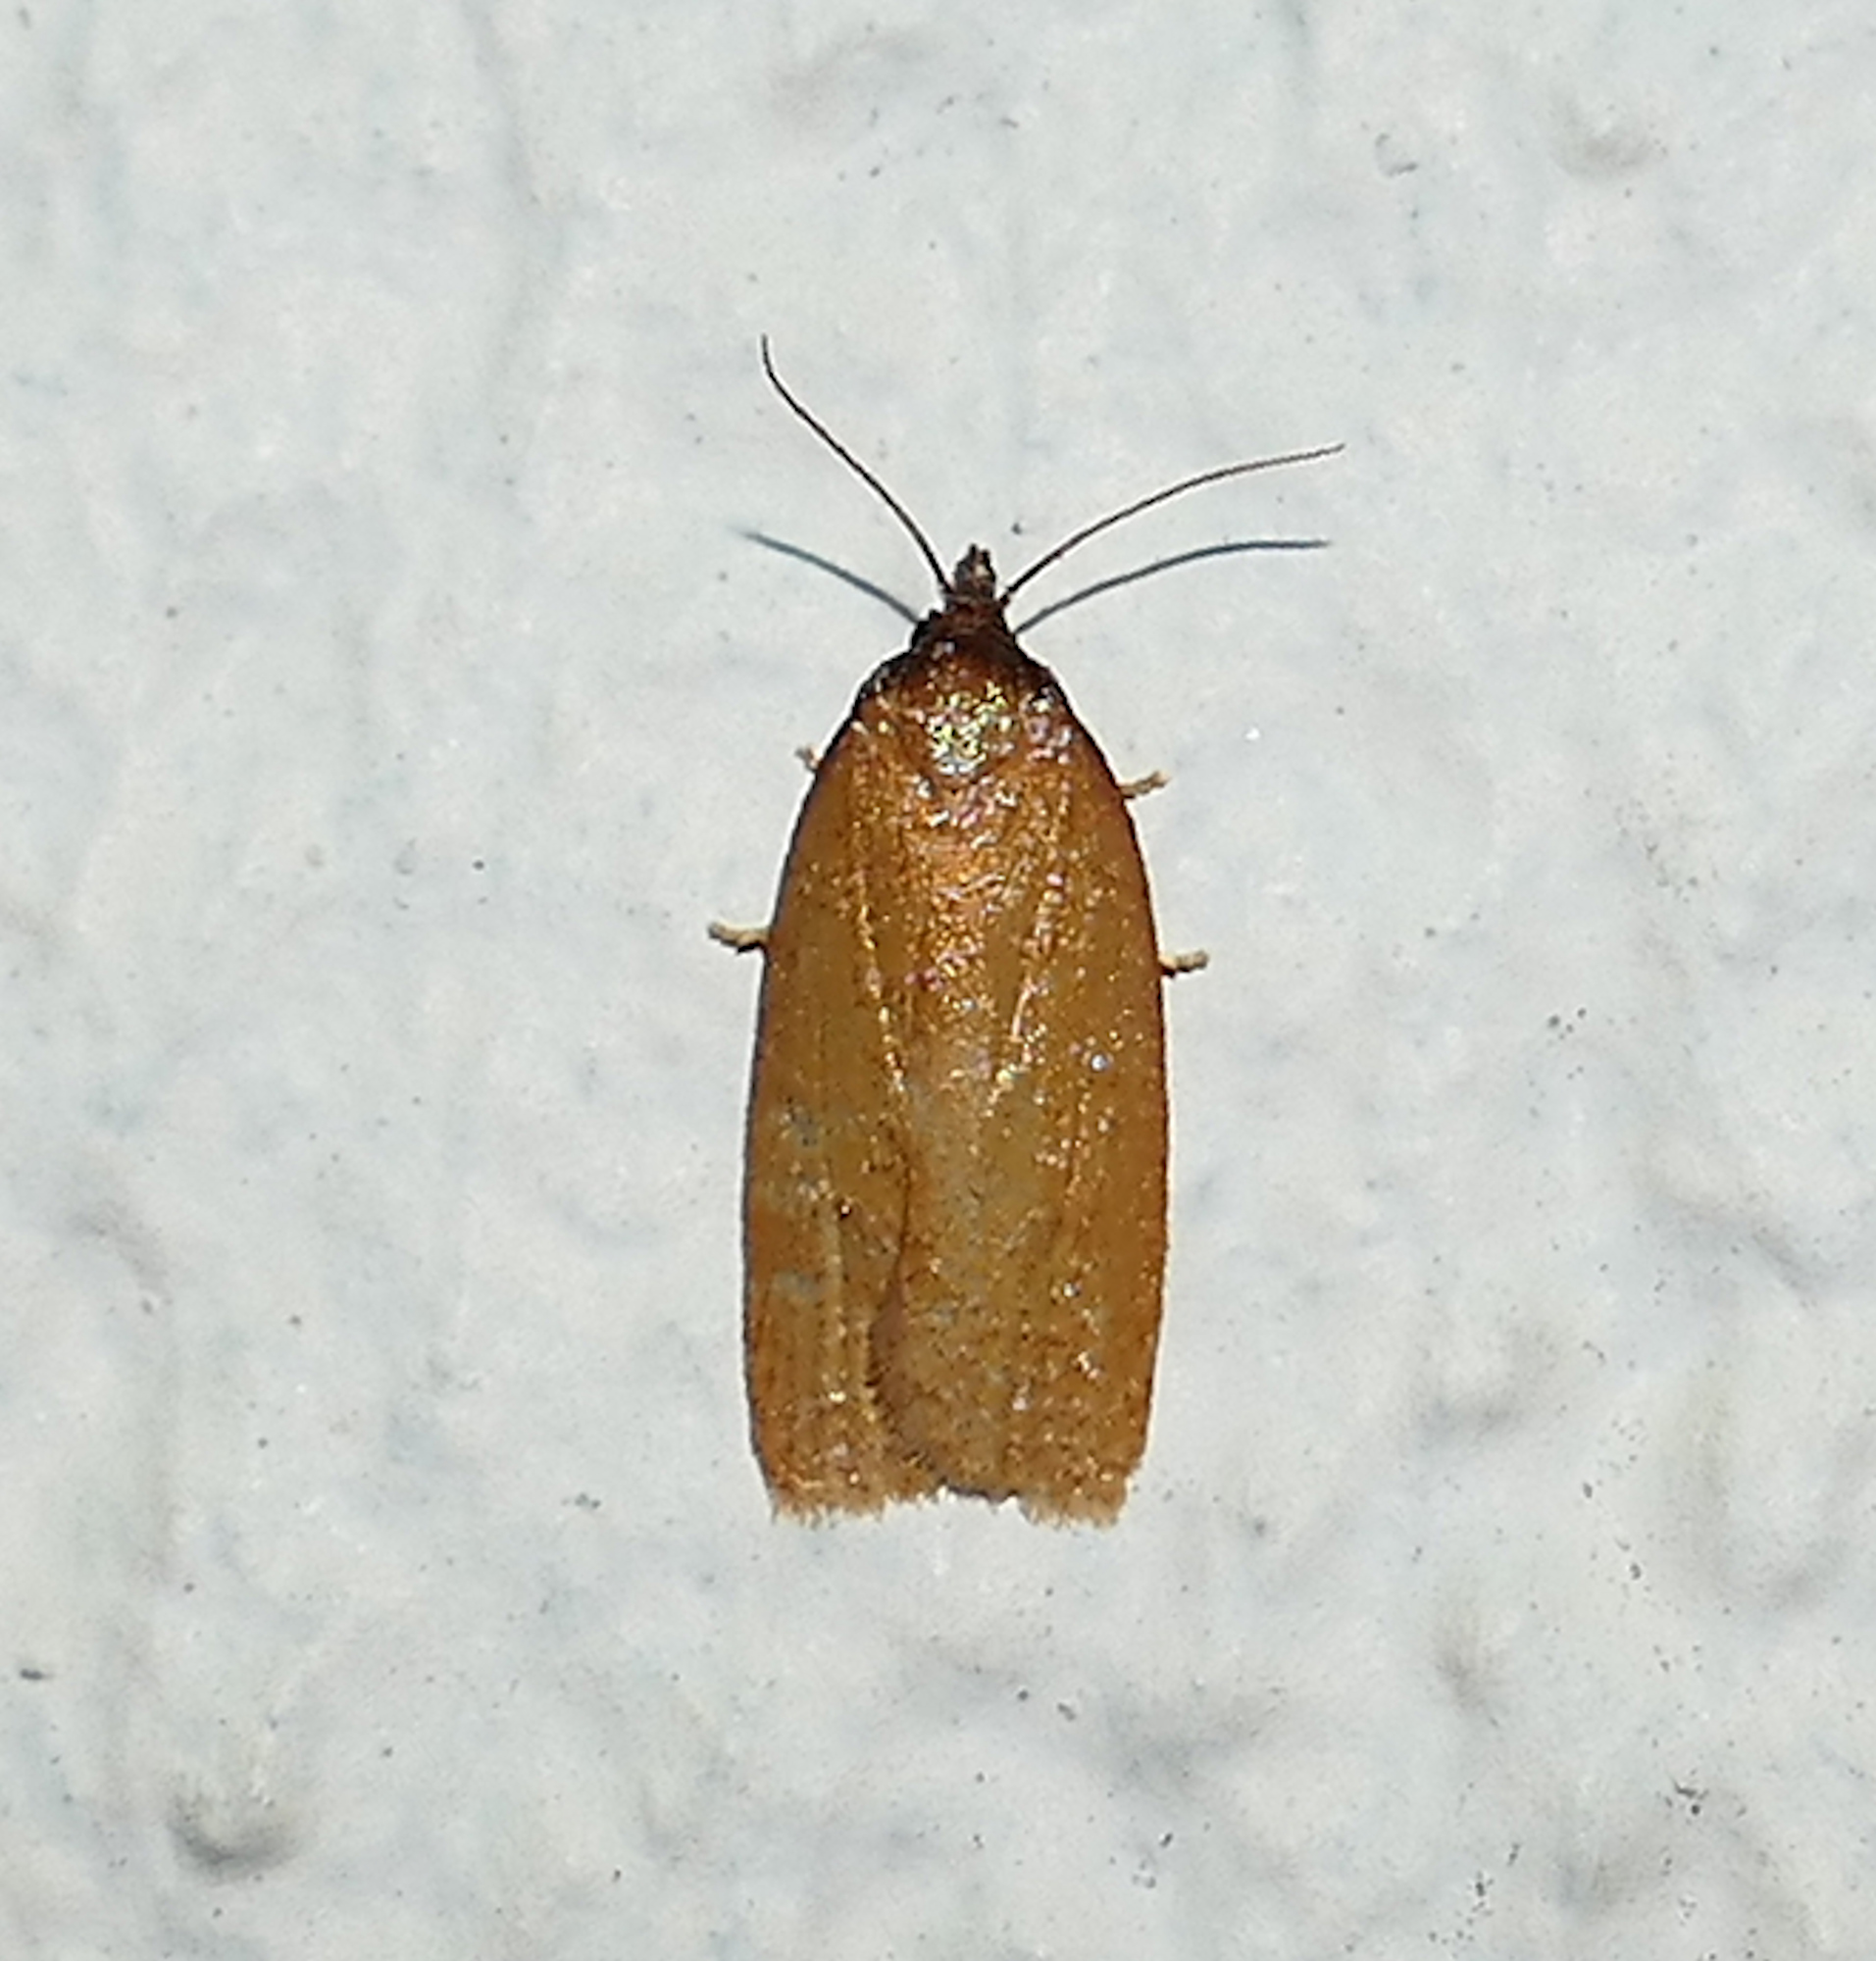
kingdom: Animalia
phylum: Arthropoda
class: Insecta
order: Lepidoptera
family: Tortricidae
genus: Sparganothis
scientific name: Sparganothis distincta
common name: Distinct sparganothis moth
